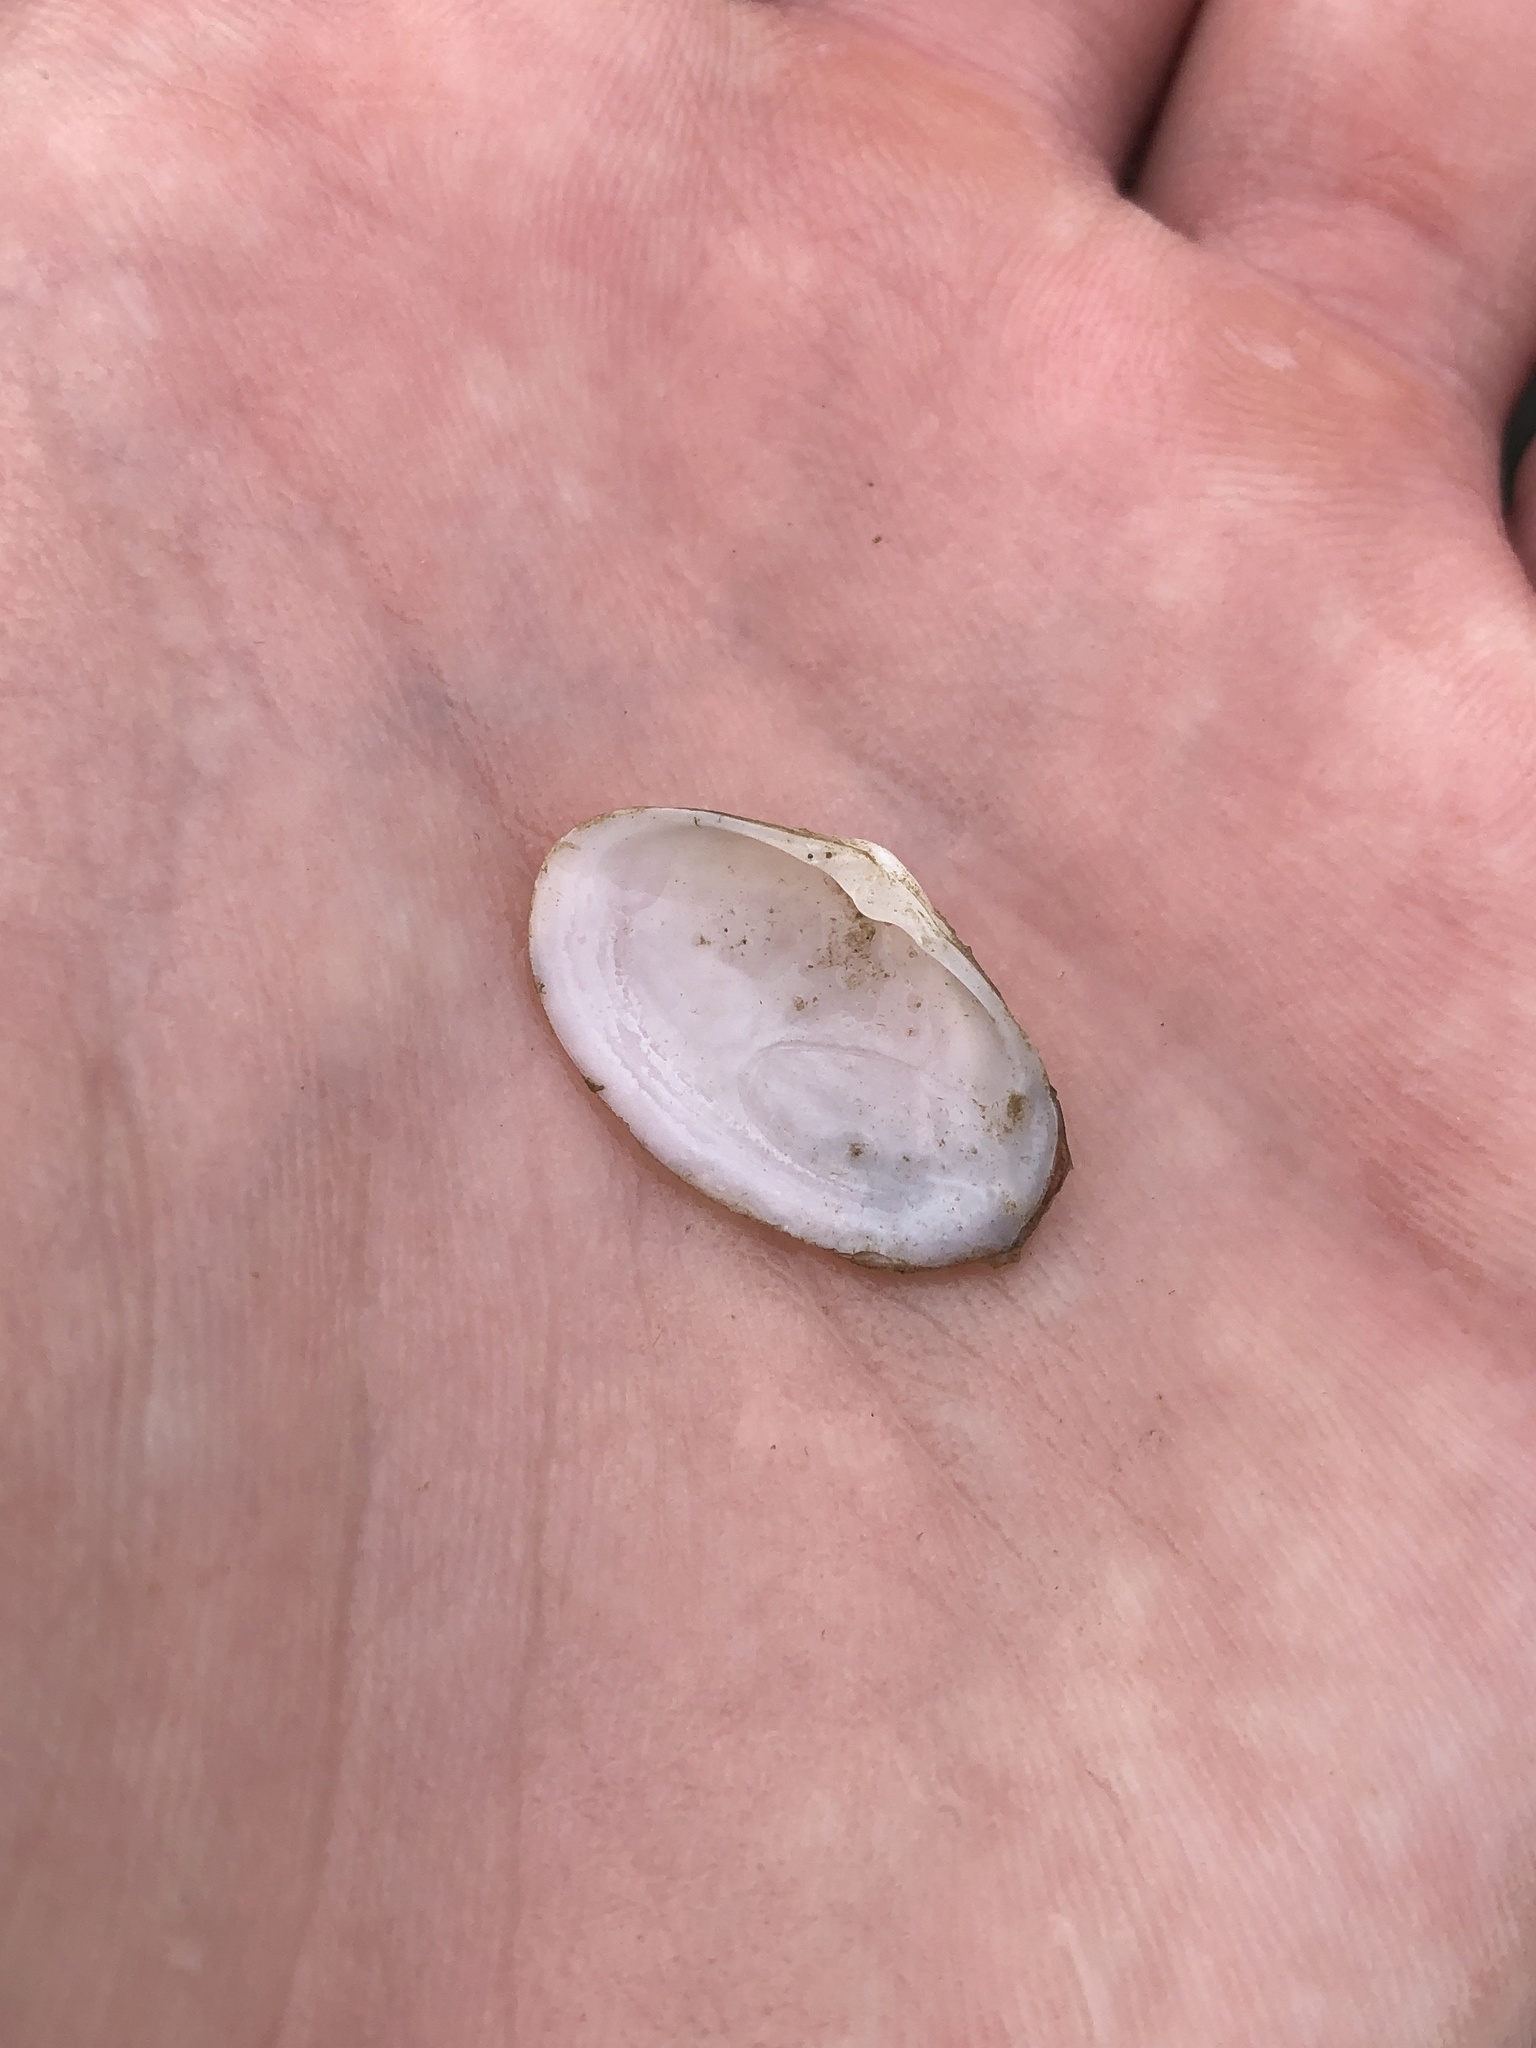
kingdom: Animalia
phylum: Mollusca
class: Bivalvia
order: Venerida
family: Mactridae
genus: Mactrotoma
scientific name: Mactrotoma fragilis
